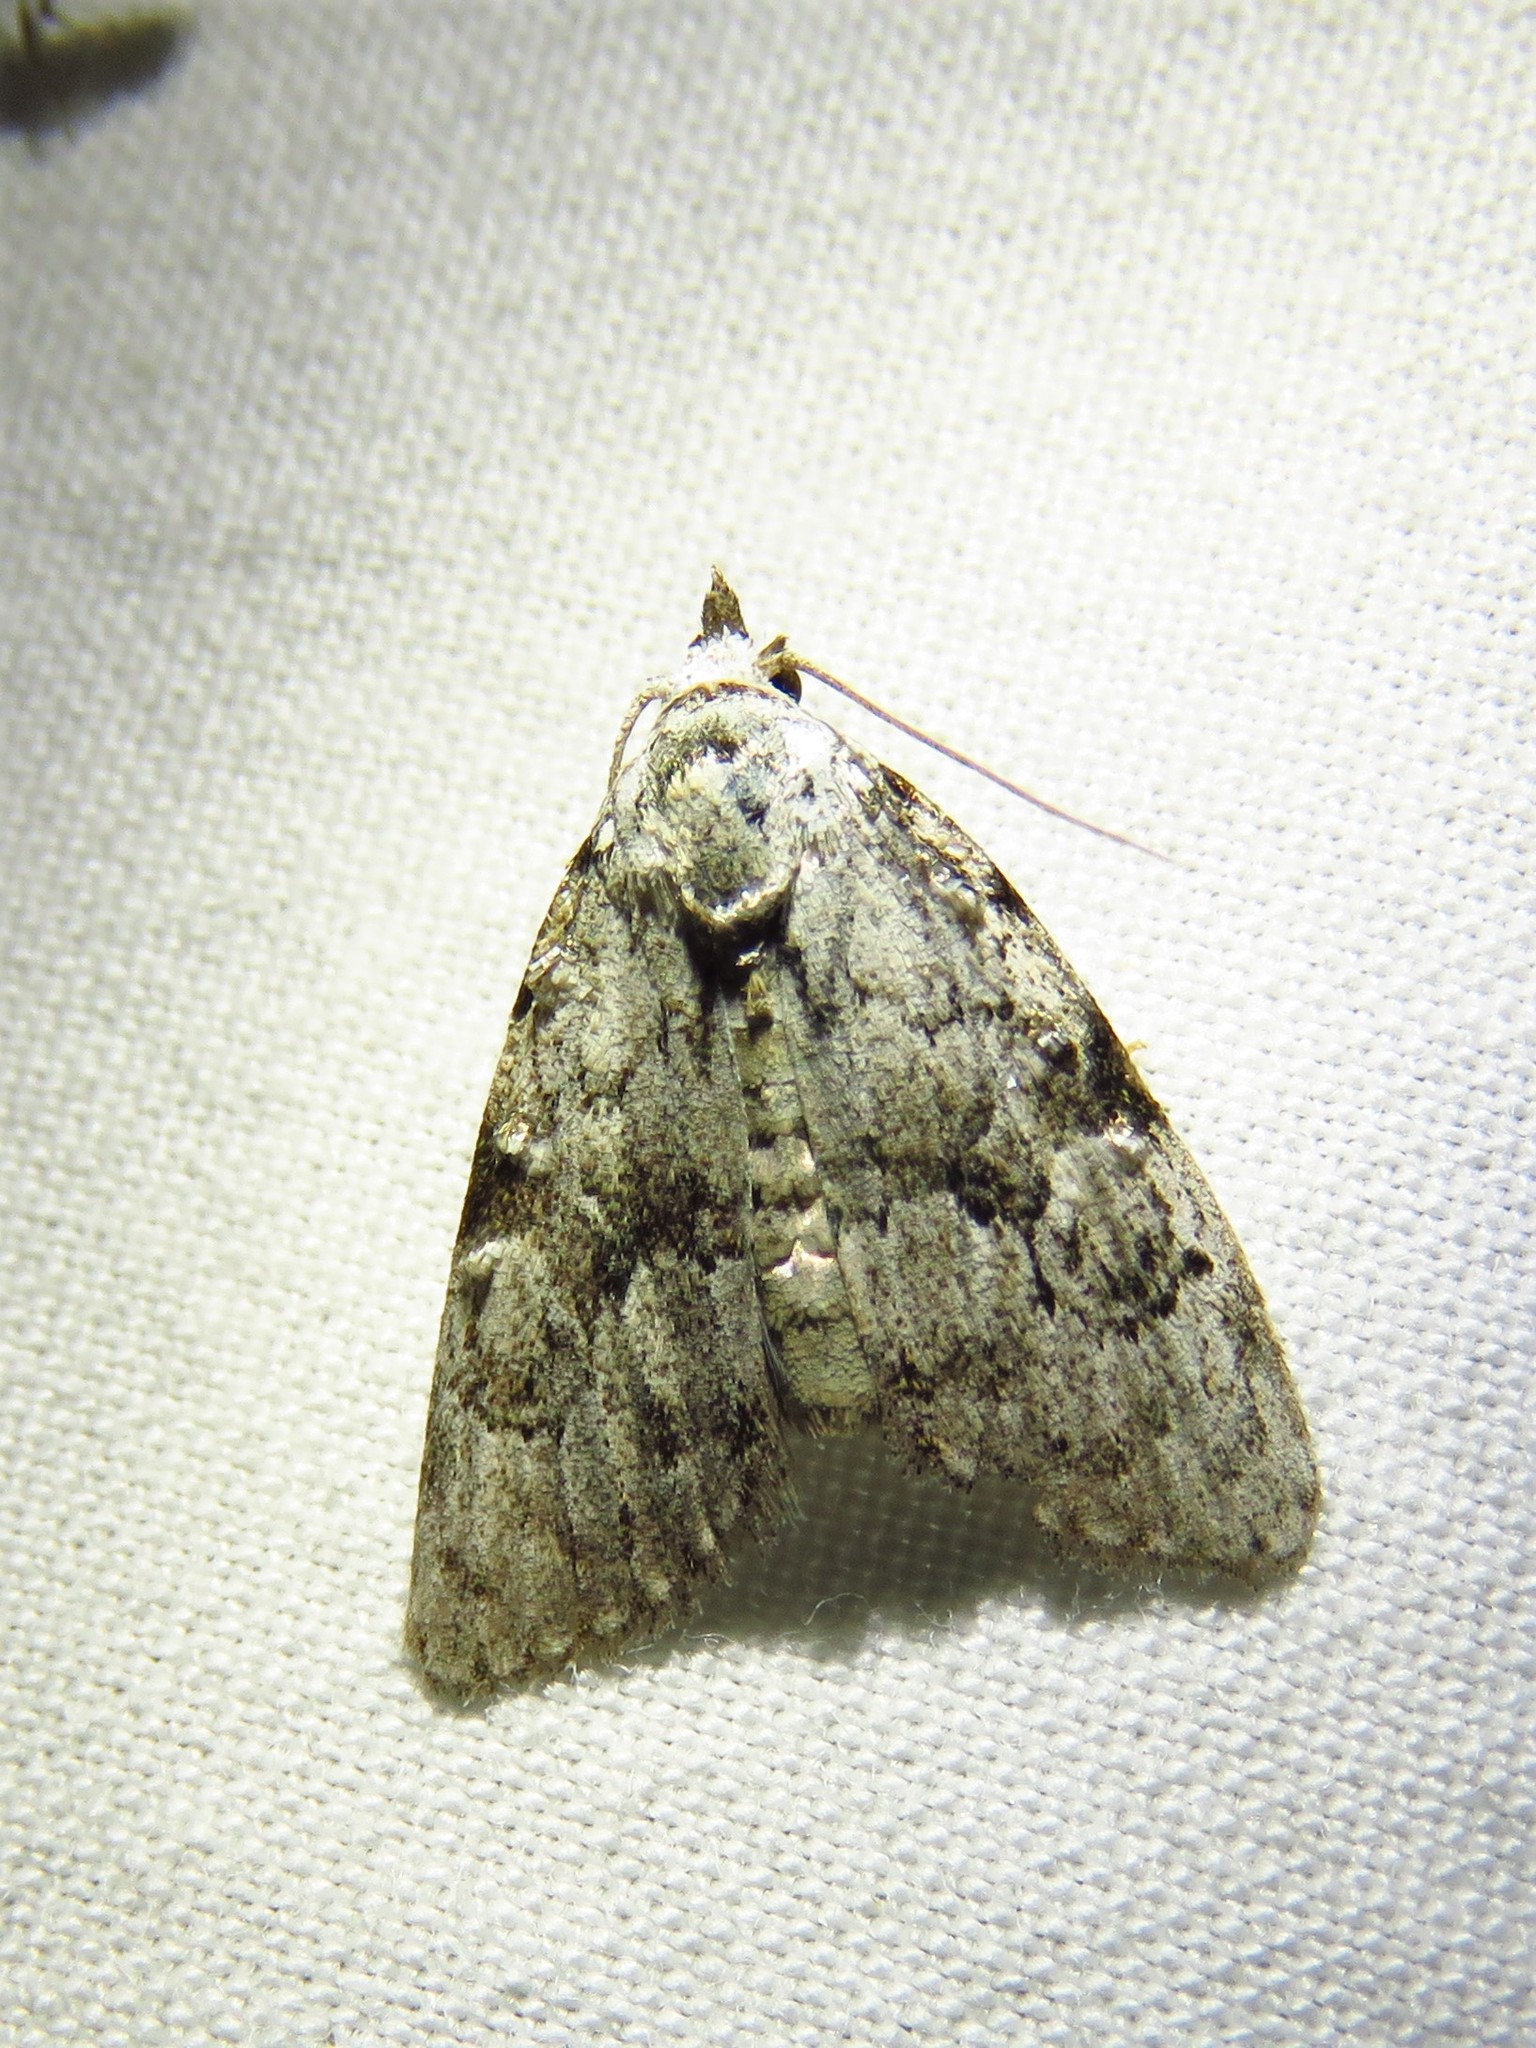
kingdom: Animalia
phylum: Arthropoda
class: Insecta
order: Lepidoptera
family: Nolidae
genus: Meganola
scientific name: Meganola minuscula
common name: Confused meganola moth
